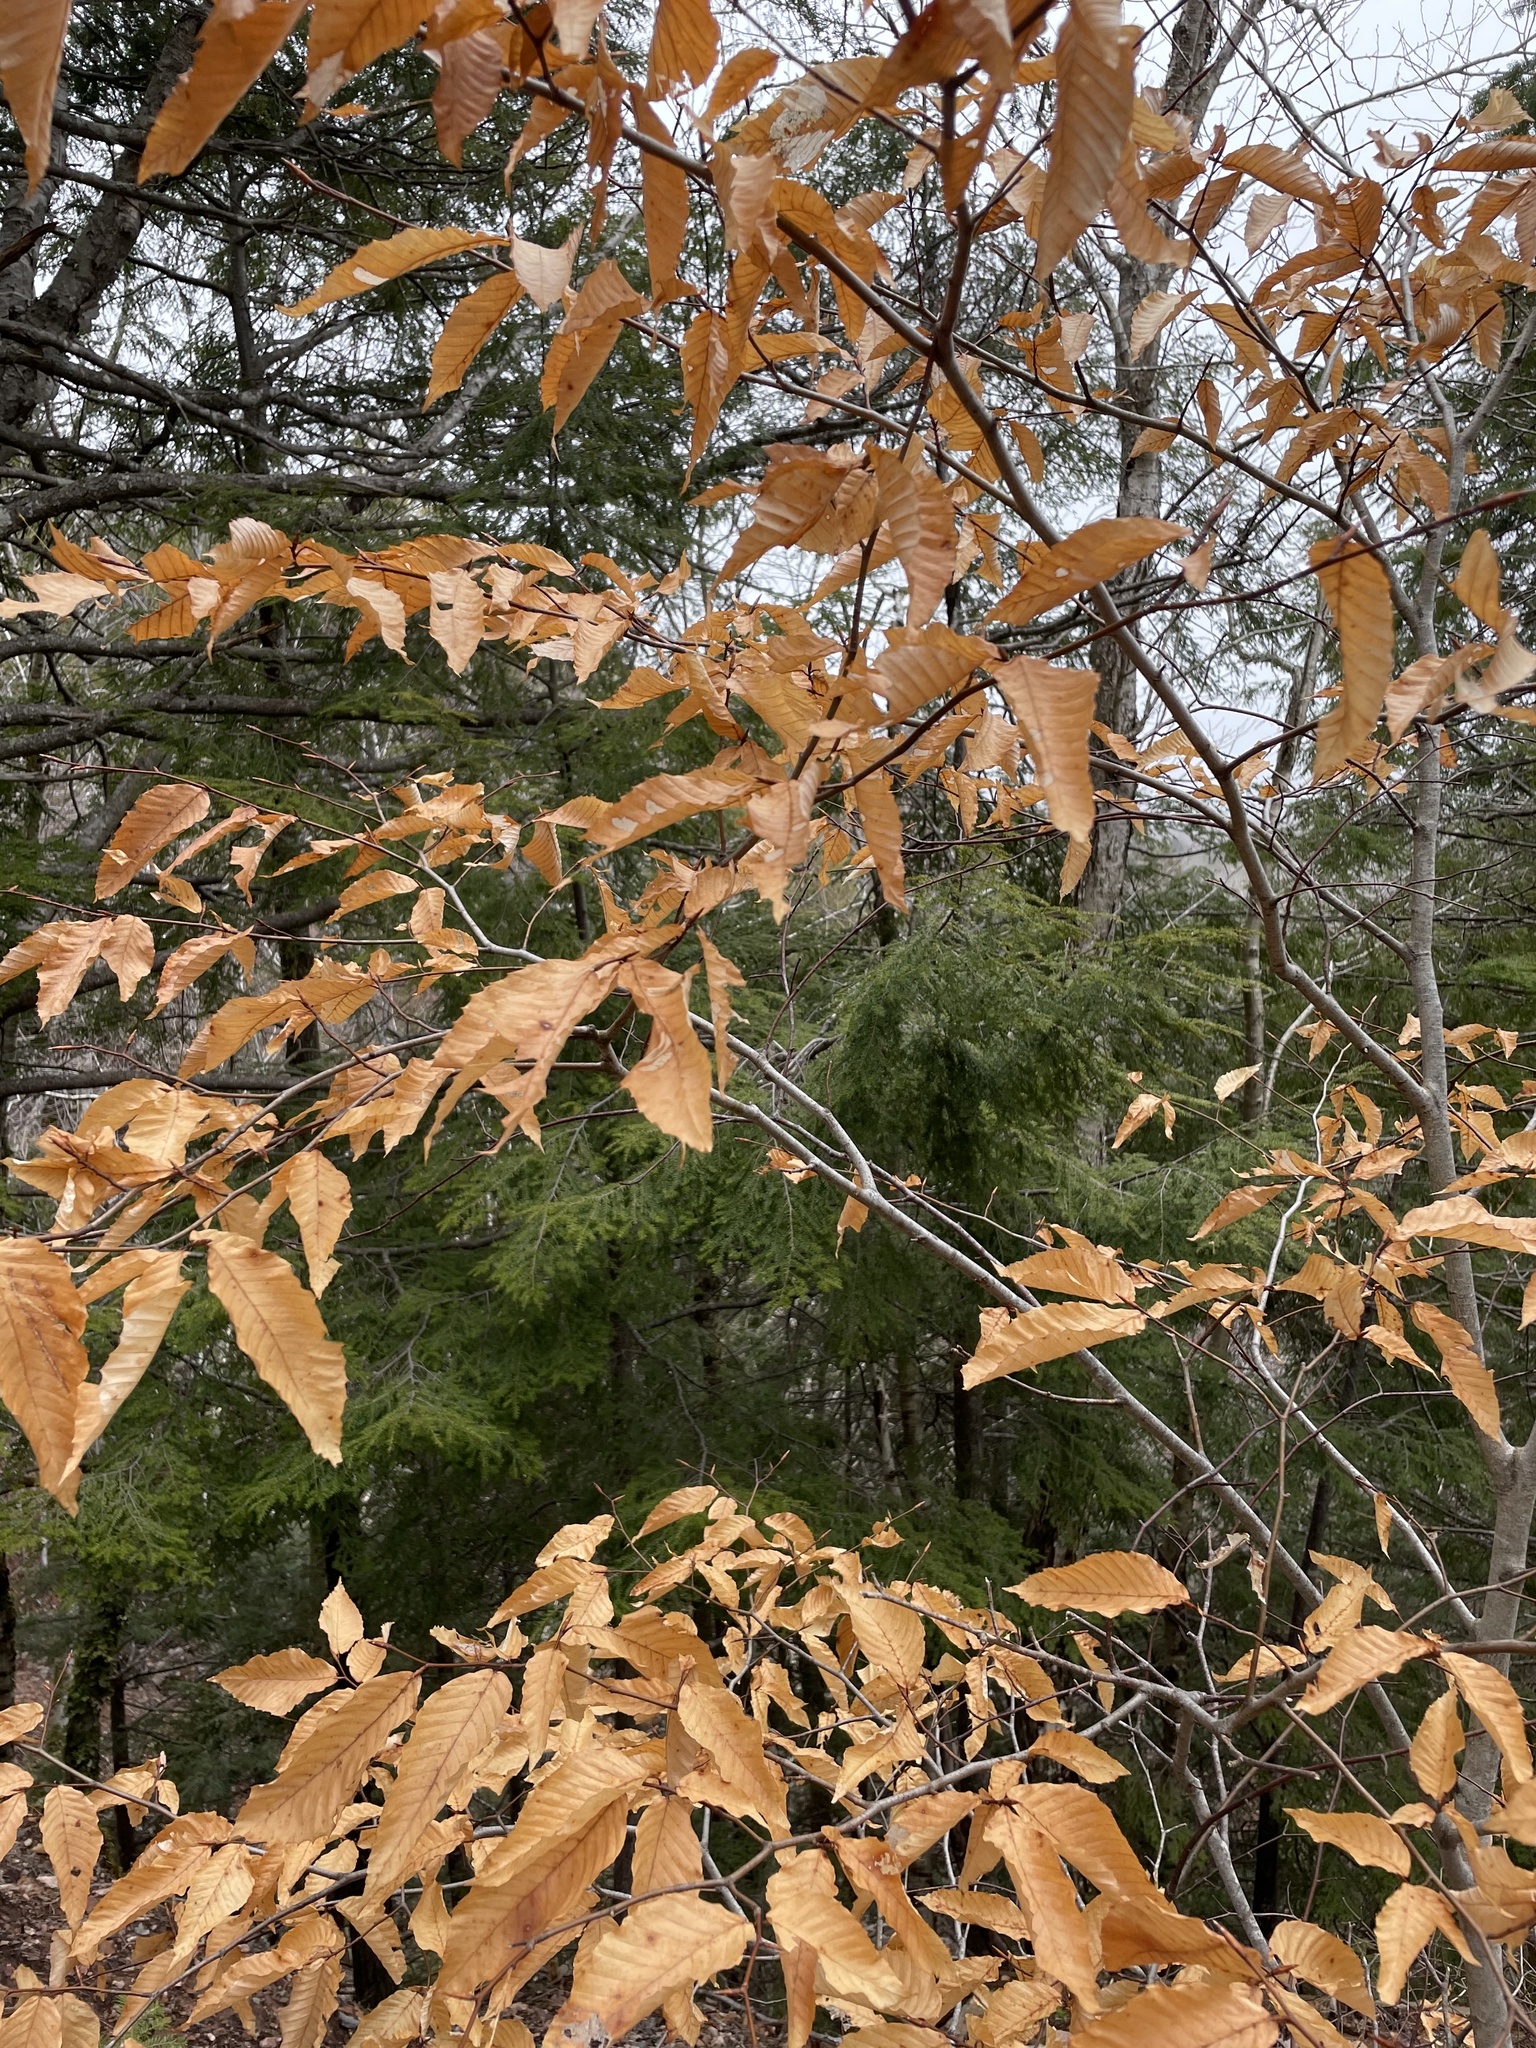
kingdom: Plantae
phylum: Tracheophyta
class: Magnoliopsida
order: Fagales
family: Fagaceae
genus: Fagus
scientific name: Fagus grandifolia
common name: American beech
